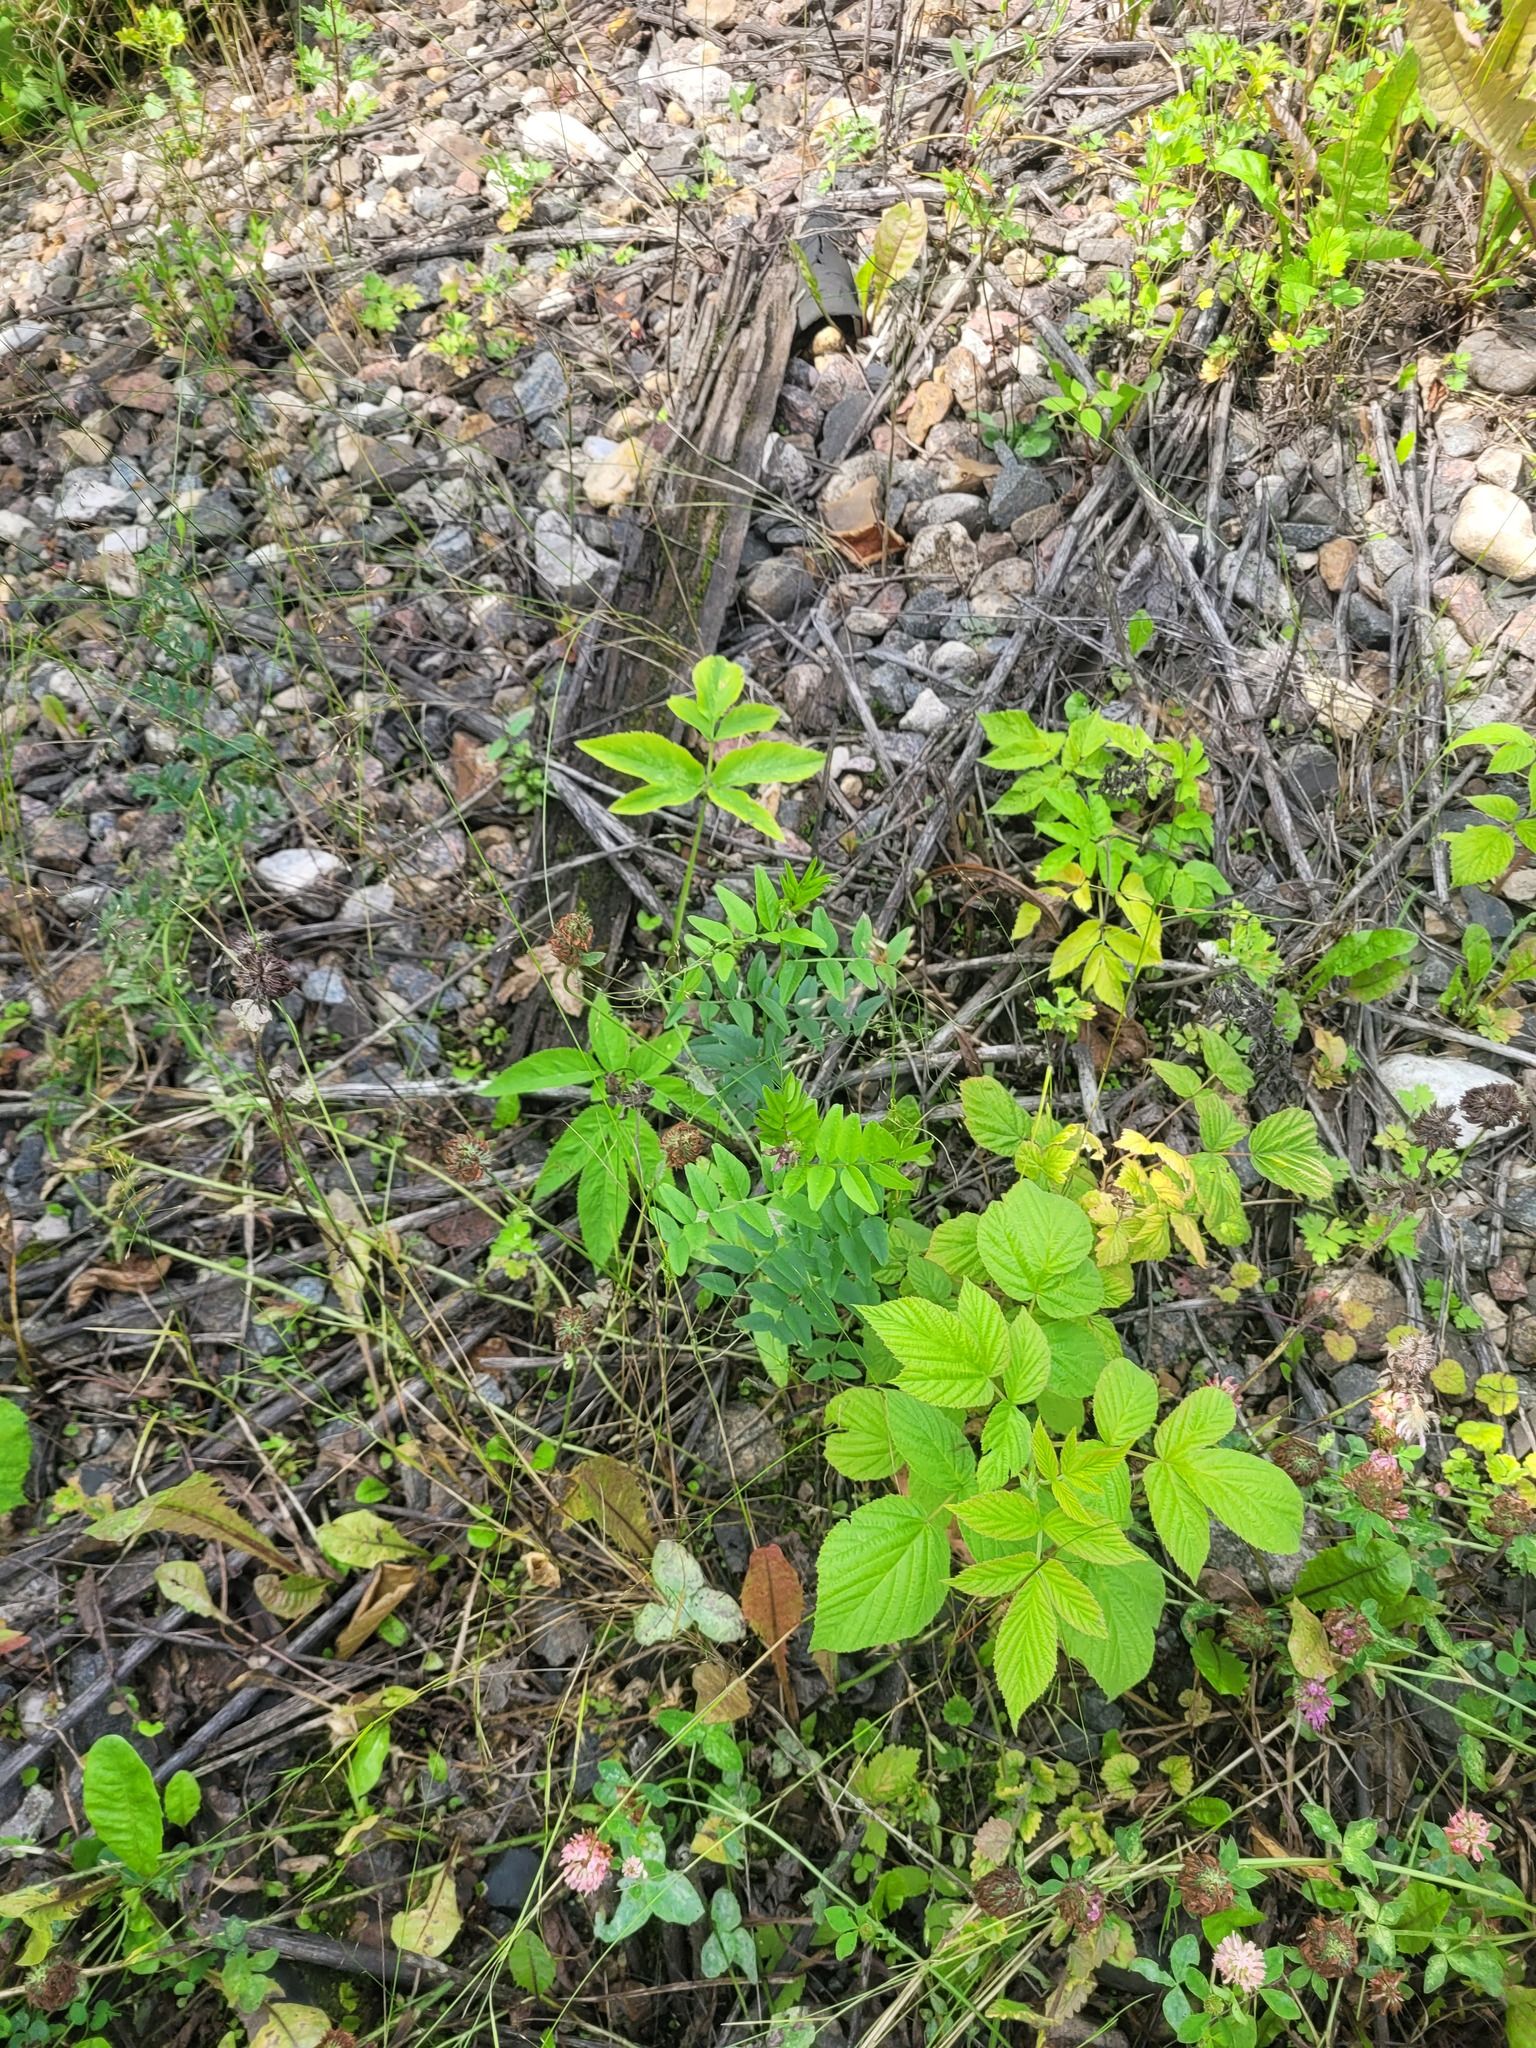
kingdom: Plantae
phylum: Tracheophyta
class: Magnoliopsida
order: Fabales
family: Fabaceae
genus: Vicia
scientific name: Vicia sepium
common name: Bush vetch
